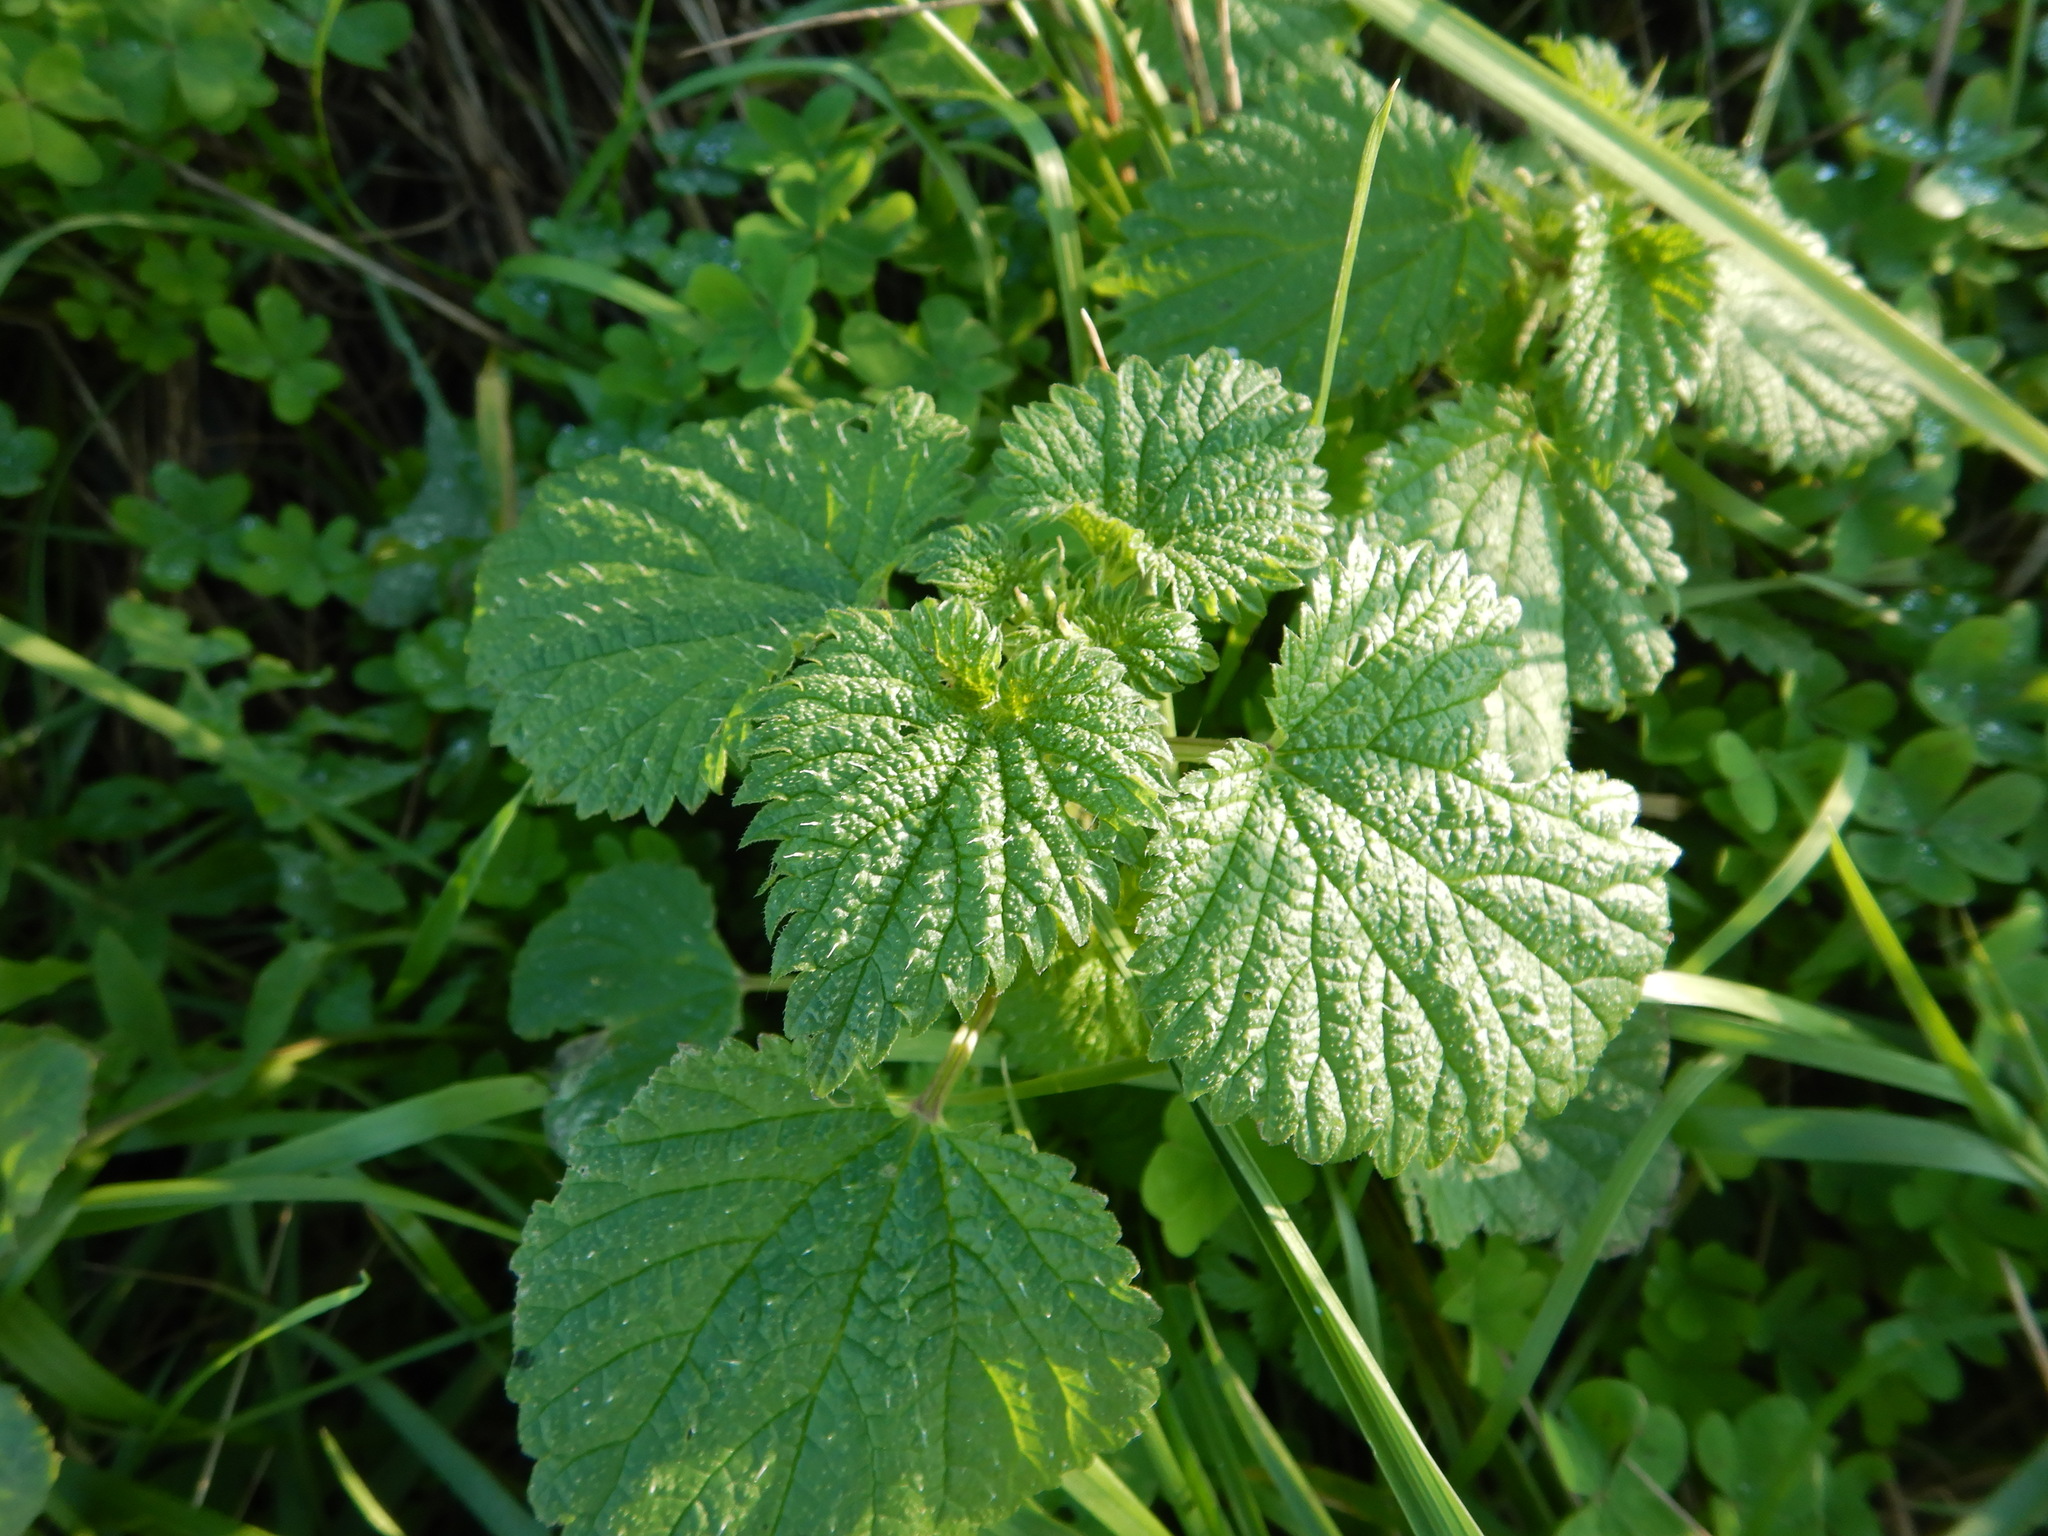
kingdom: Plantae
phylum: Tracheophyta
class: Magnoliopsida
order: Rosales
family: Urticaceae
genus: Urtica
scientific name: Urtica membranacea
